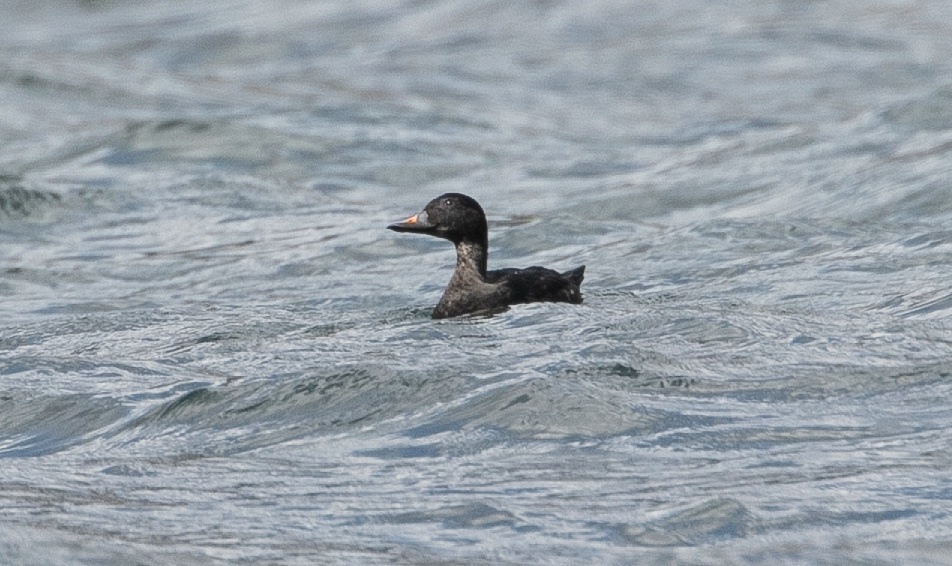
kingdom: Animalia
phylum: Chordata
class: Aves
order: Anseriformes
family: Anatidae
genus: Melanitta
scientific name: Melanitta nigra
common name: Common scoter
